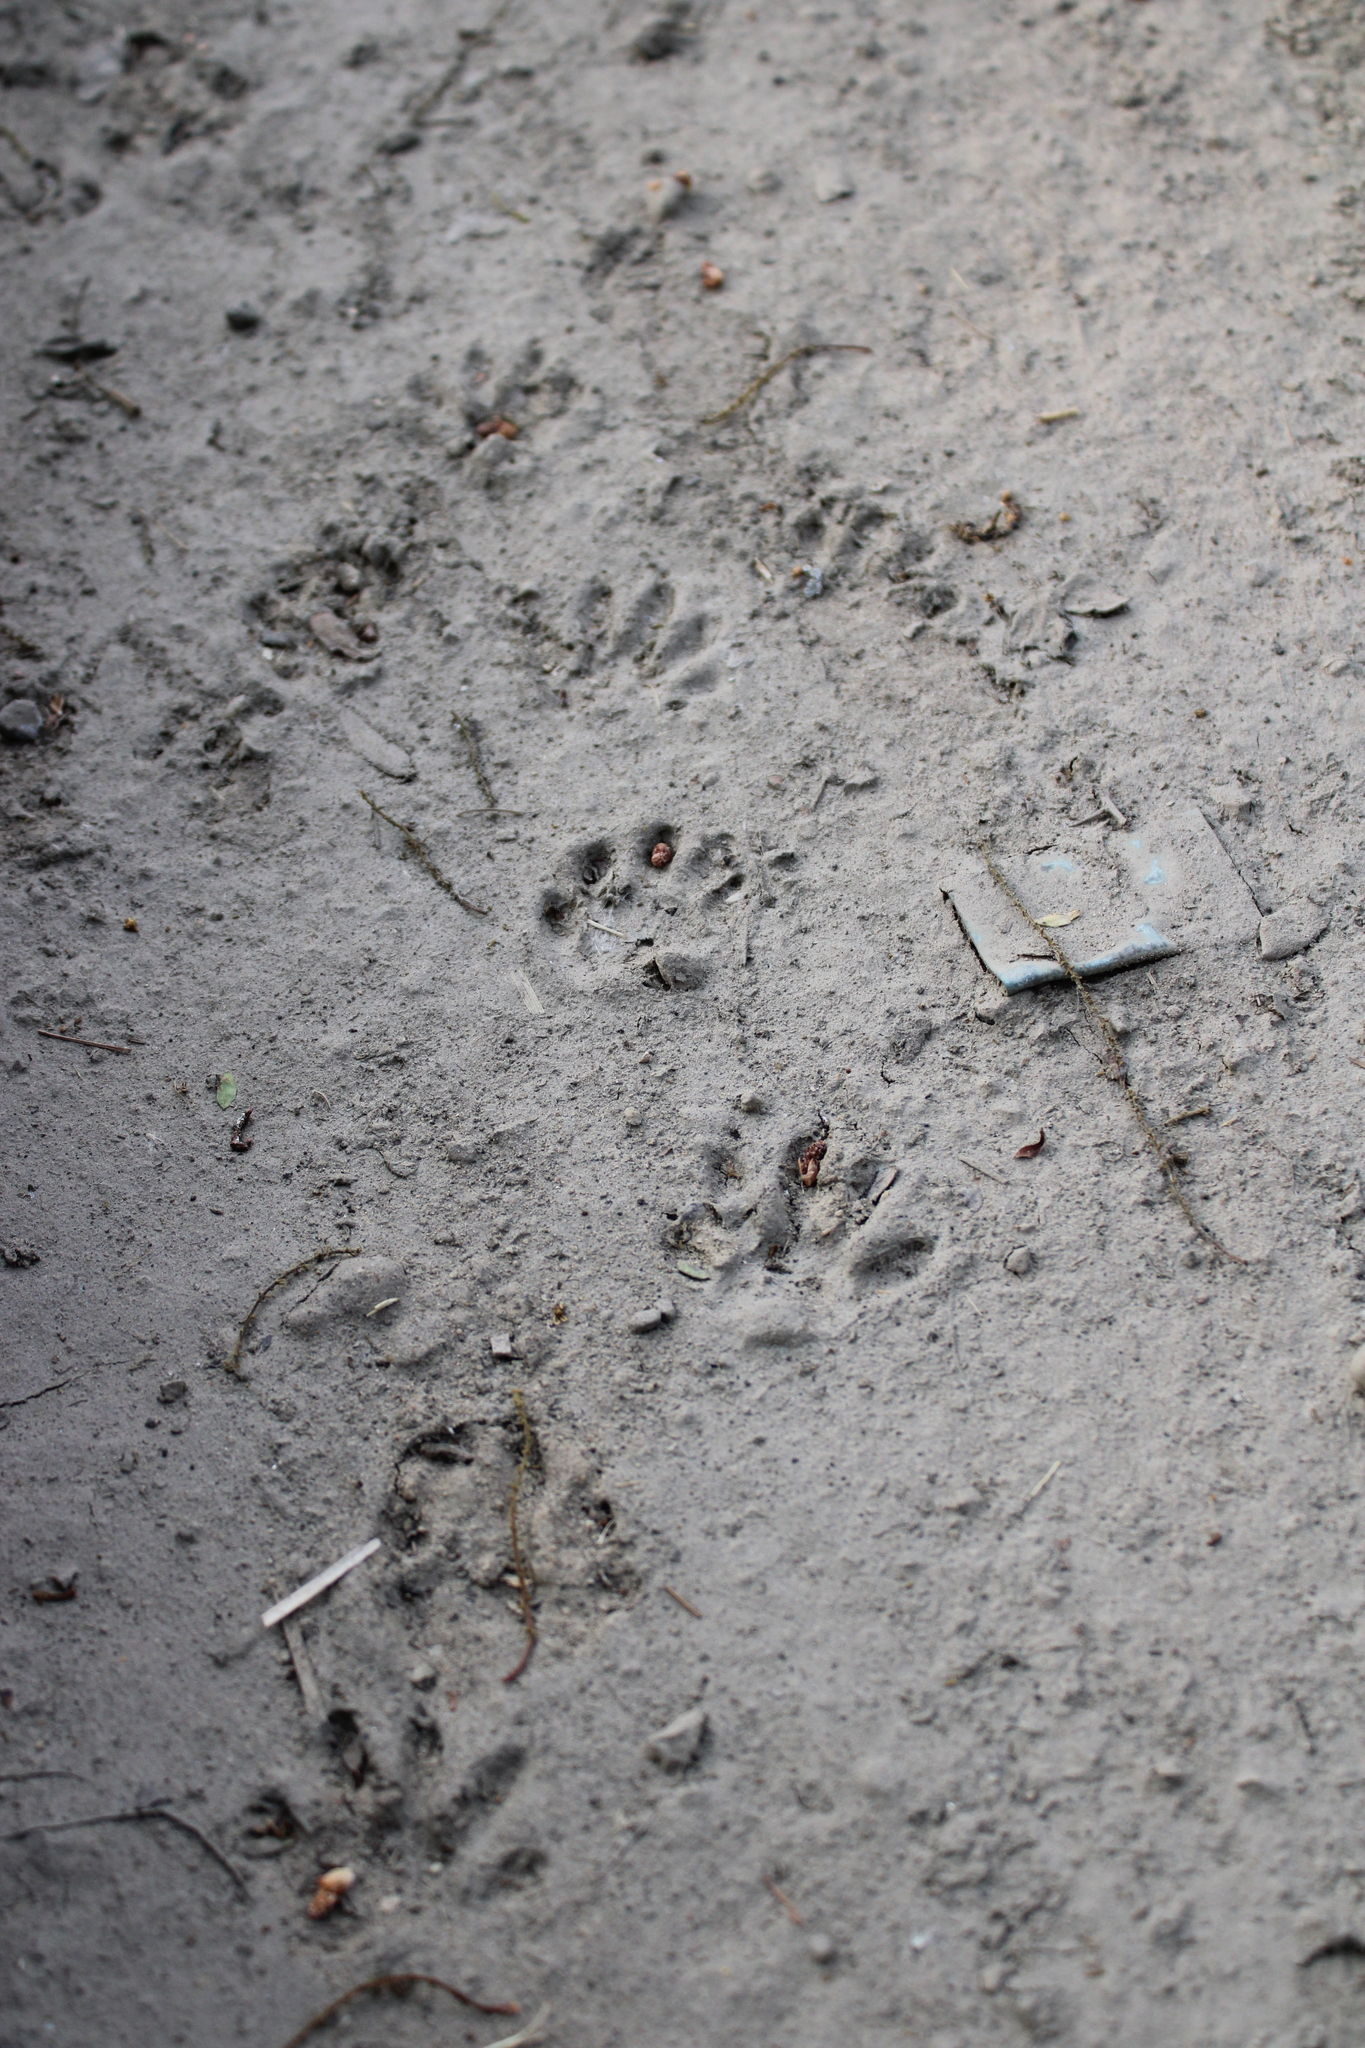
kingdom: Animalia
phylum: Chordata
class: Mammalia
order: Carnivora
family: Procyonidae
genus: Procyon
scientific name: Procyon lotor
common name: Raccoon
